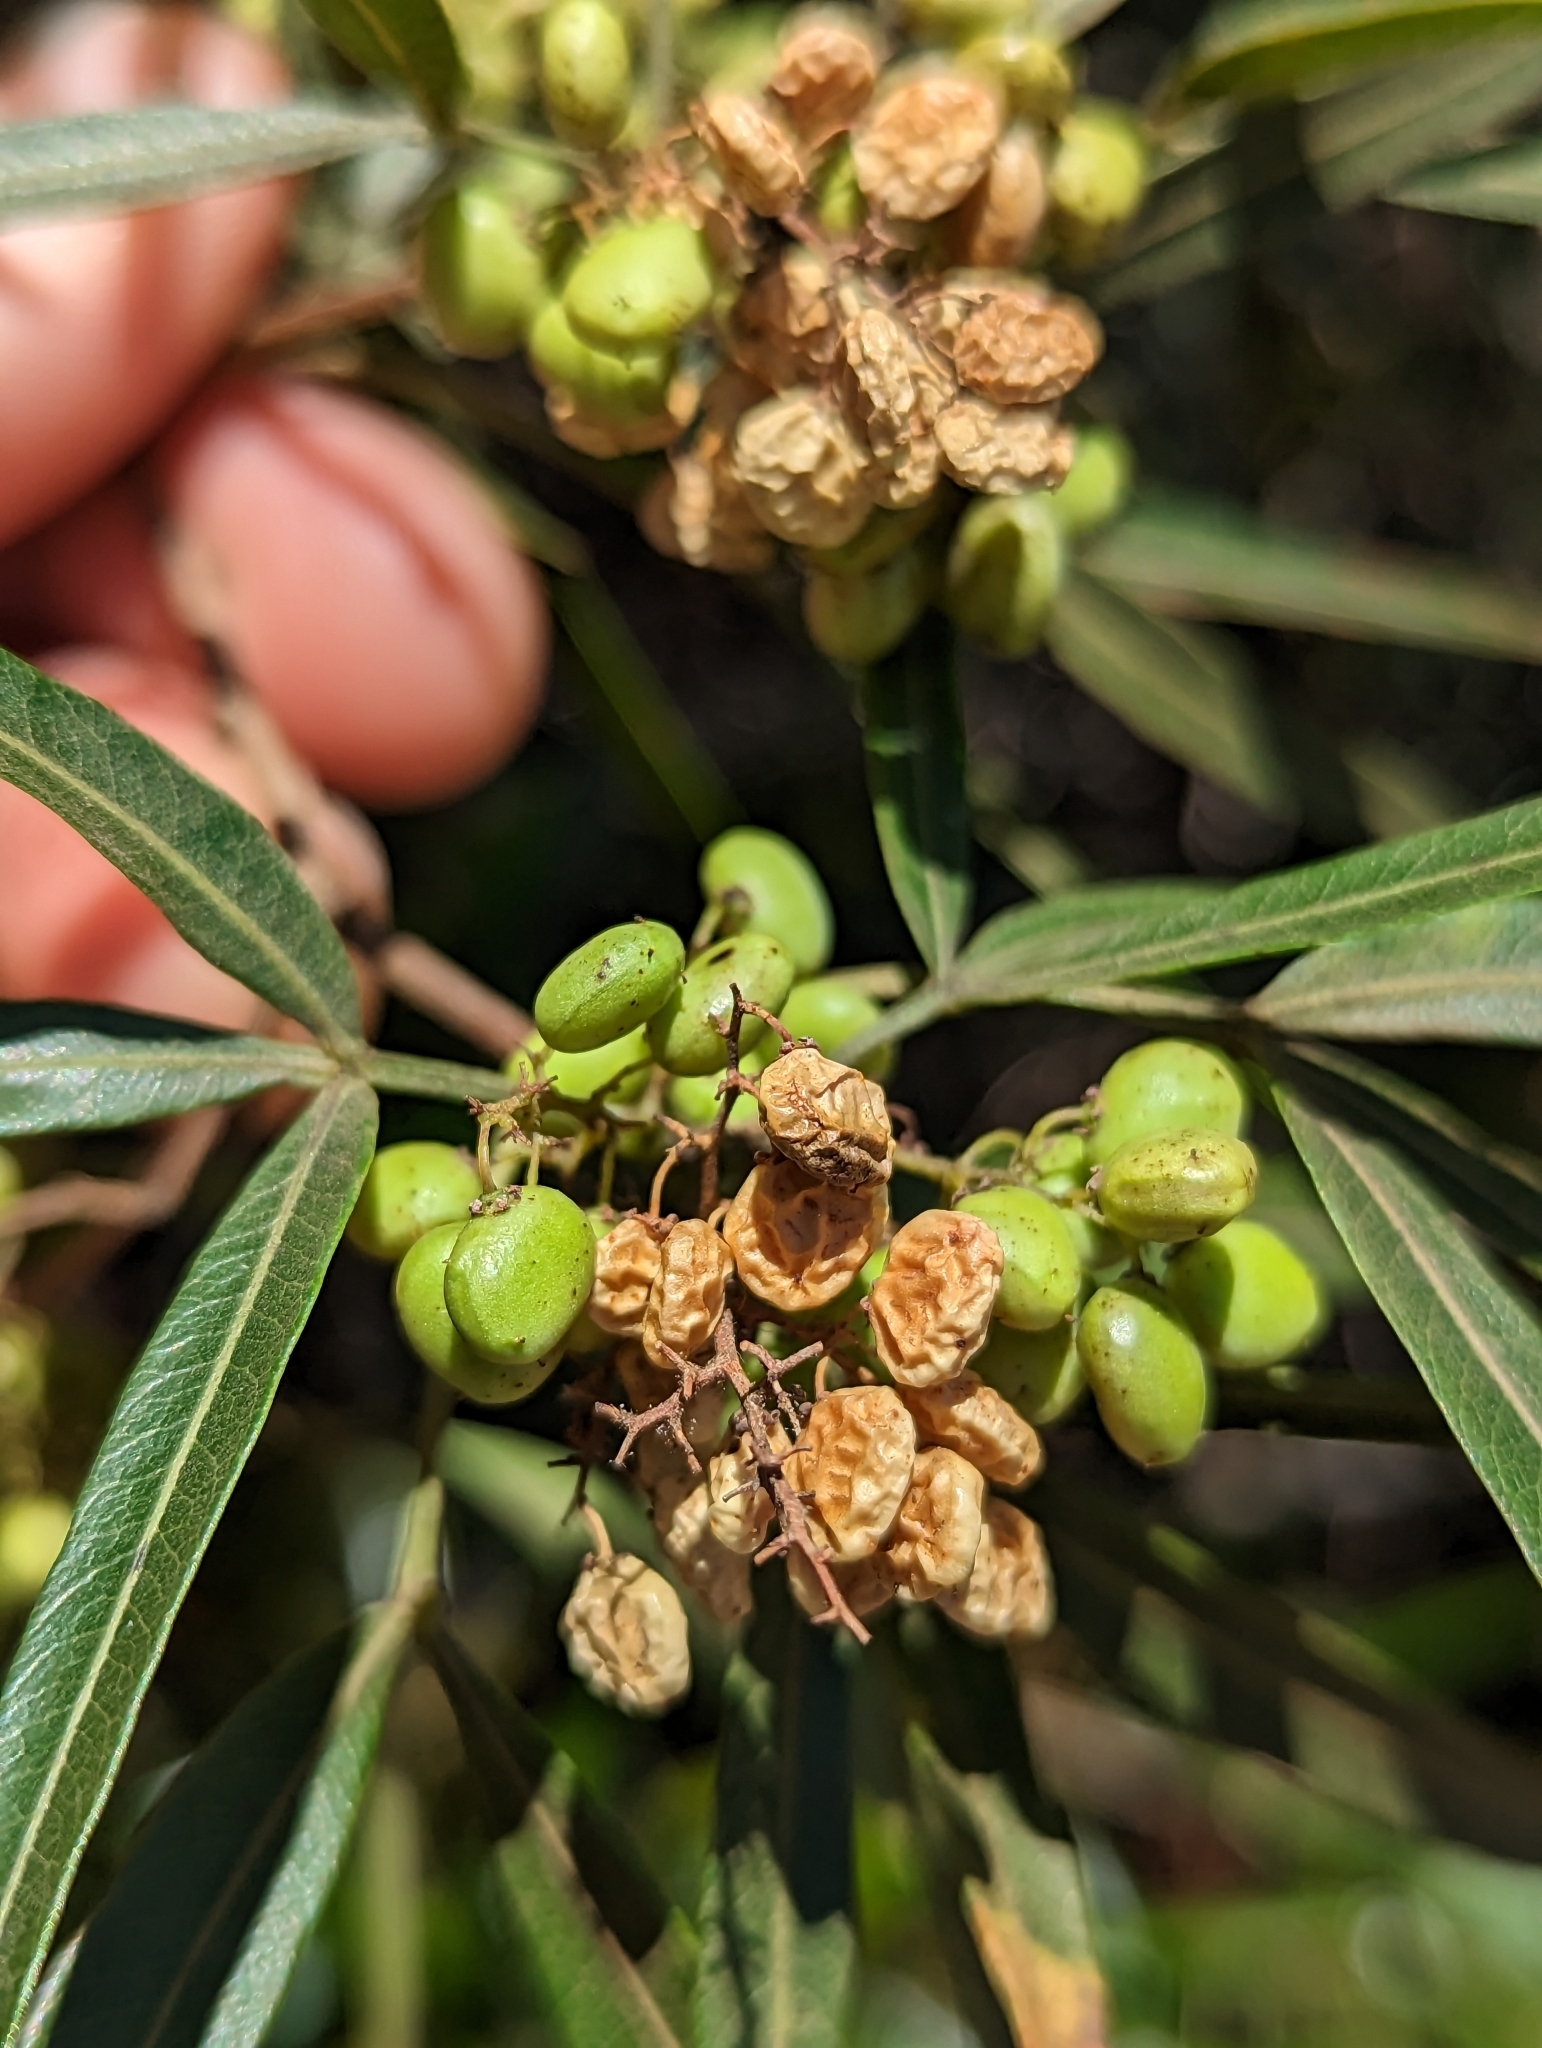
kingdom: Plantae
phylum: Tracheophyta
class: Magnoliopsida
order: Sapindales
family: Anacardiaceae
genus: Searsia
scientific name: Searsia lancea
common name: Cashew
